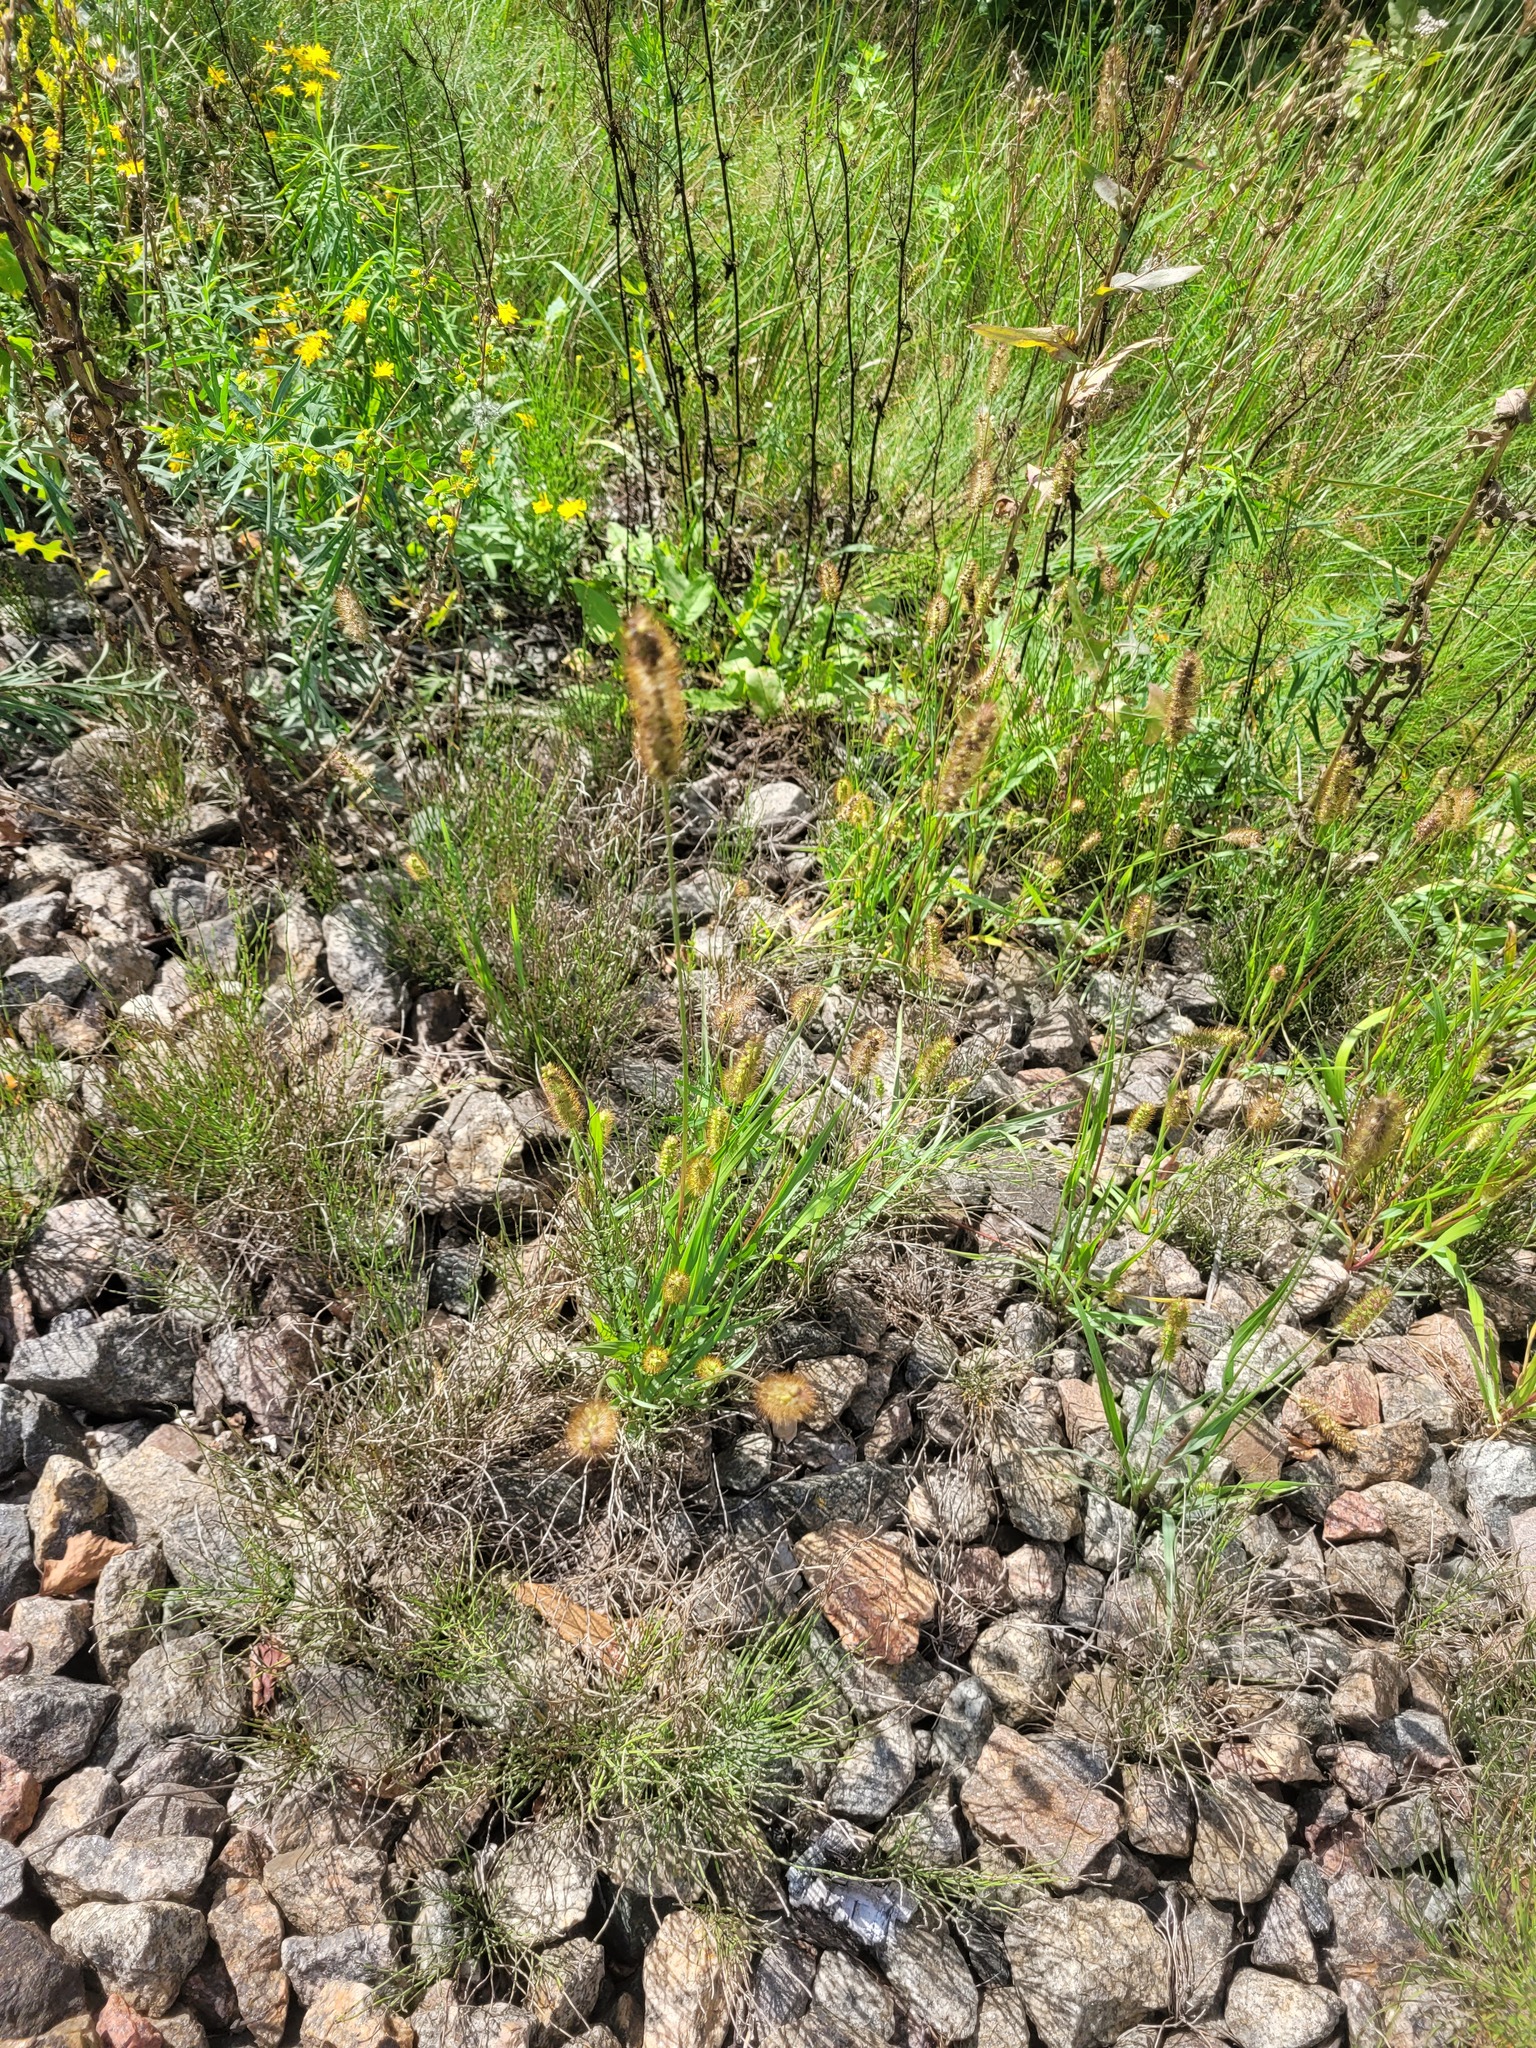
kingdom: Plantae
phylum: Tracheophyta
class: Liliopsida
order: Poales
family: Poaceae
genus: Setaria
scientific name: Setaria pumila
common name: Yellow bristle-grass
